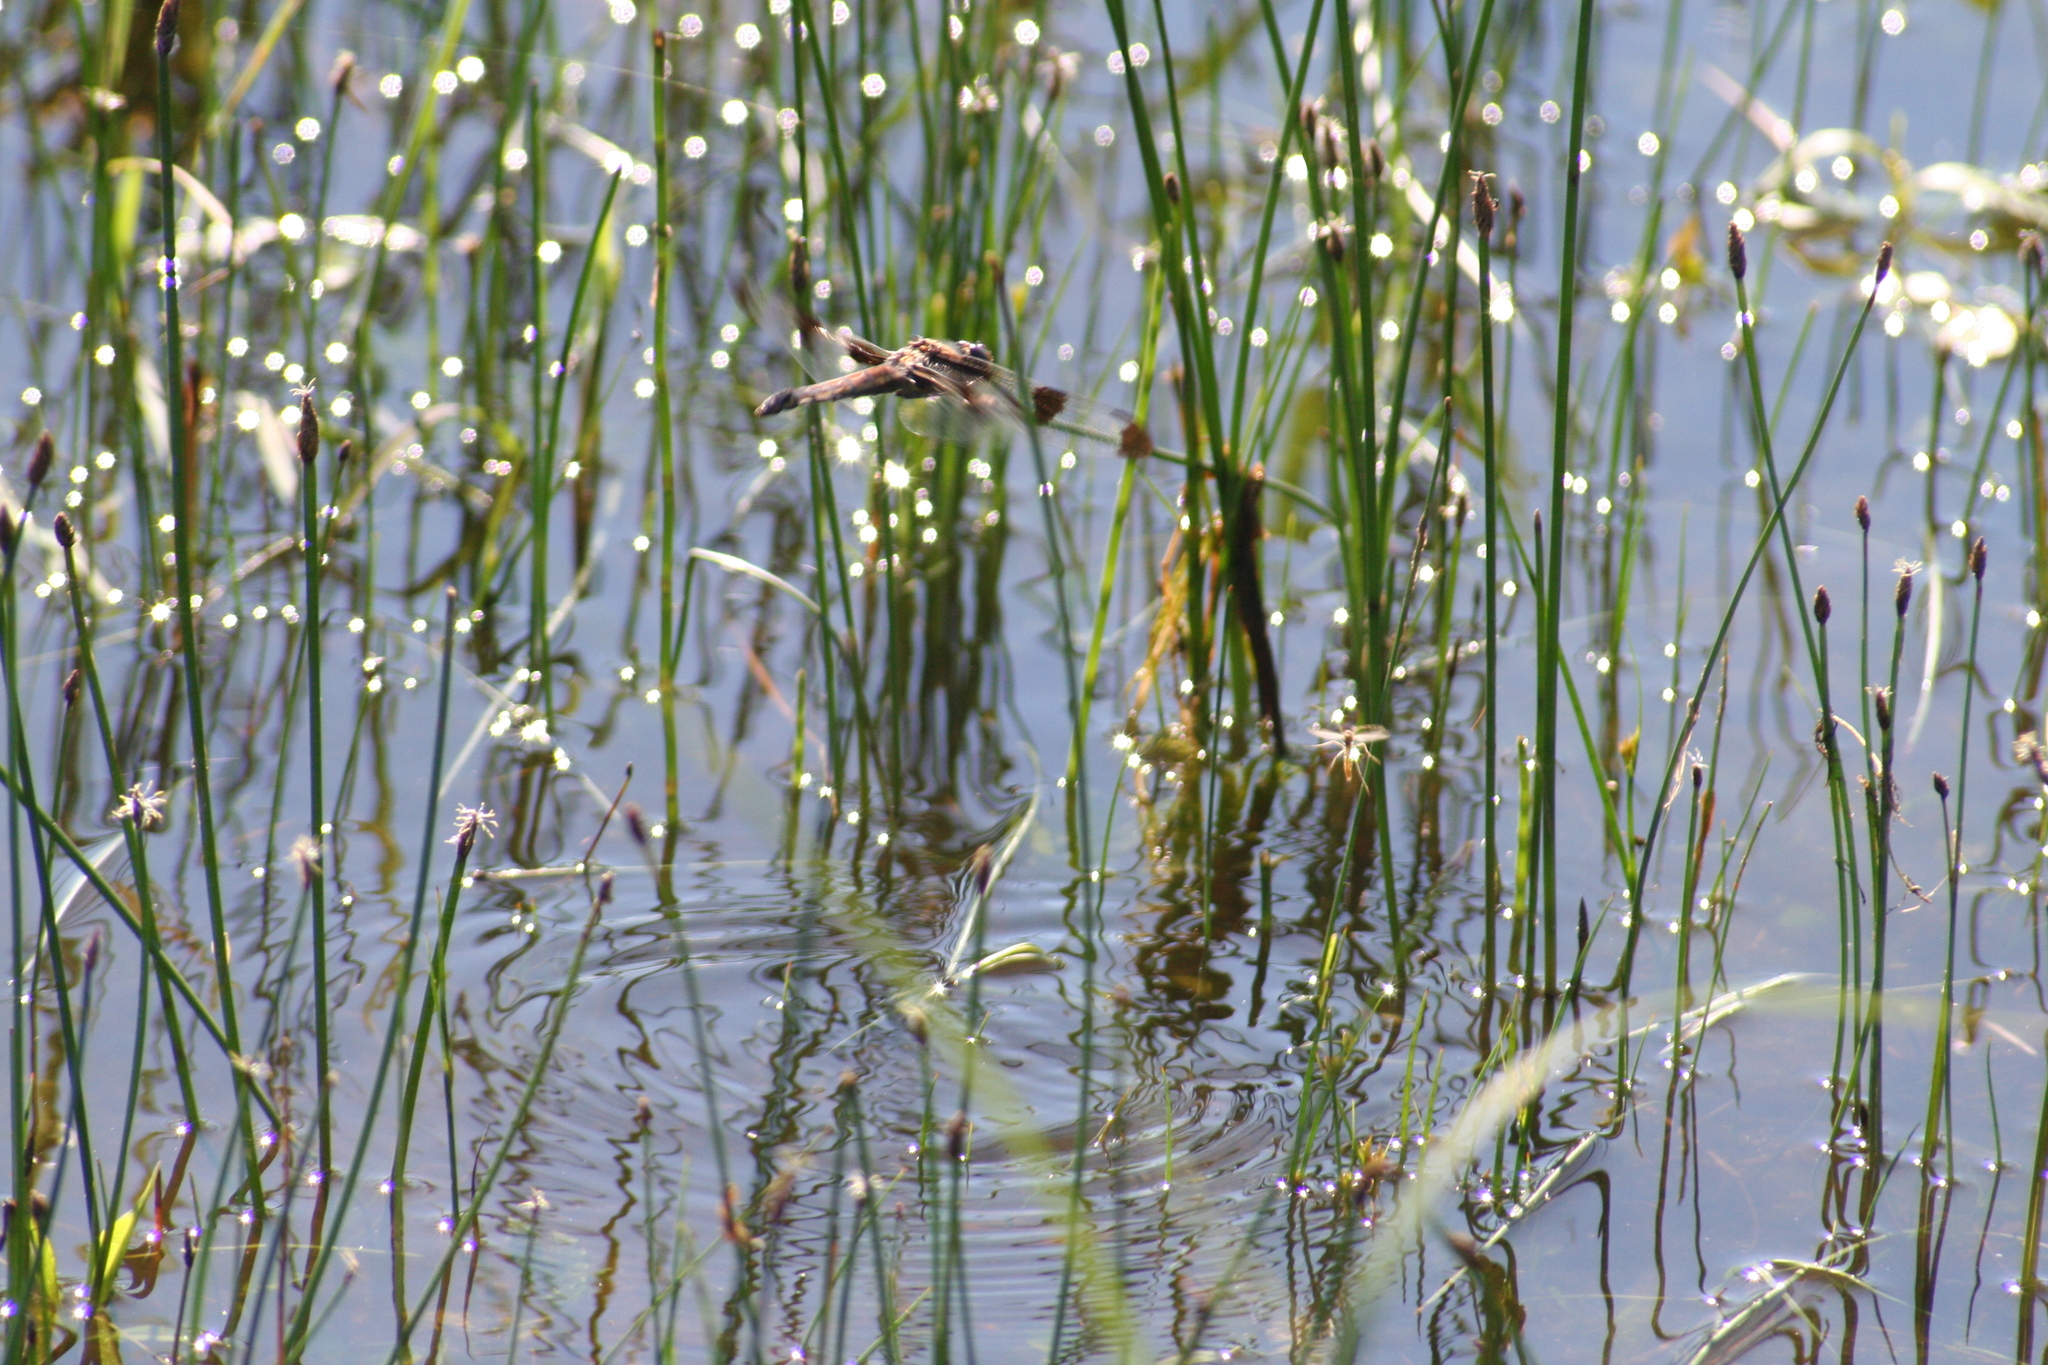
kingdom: Animalia
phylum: Arthropoda
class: Insecta
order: Odonata
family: Libellulidae
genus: Libellula
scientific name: Libellula pulchella
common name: Twelve-spotted skimmer
